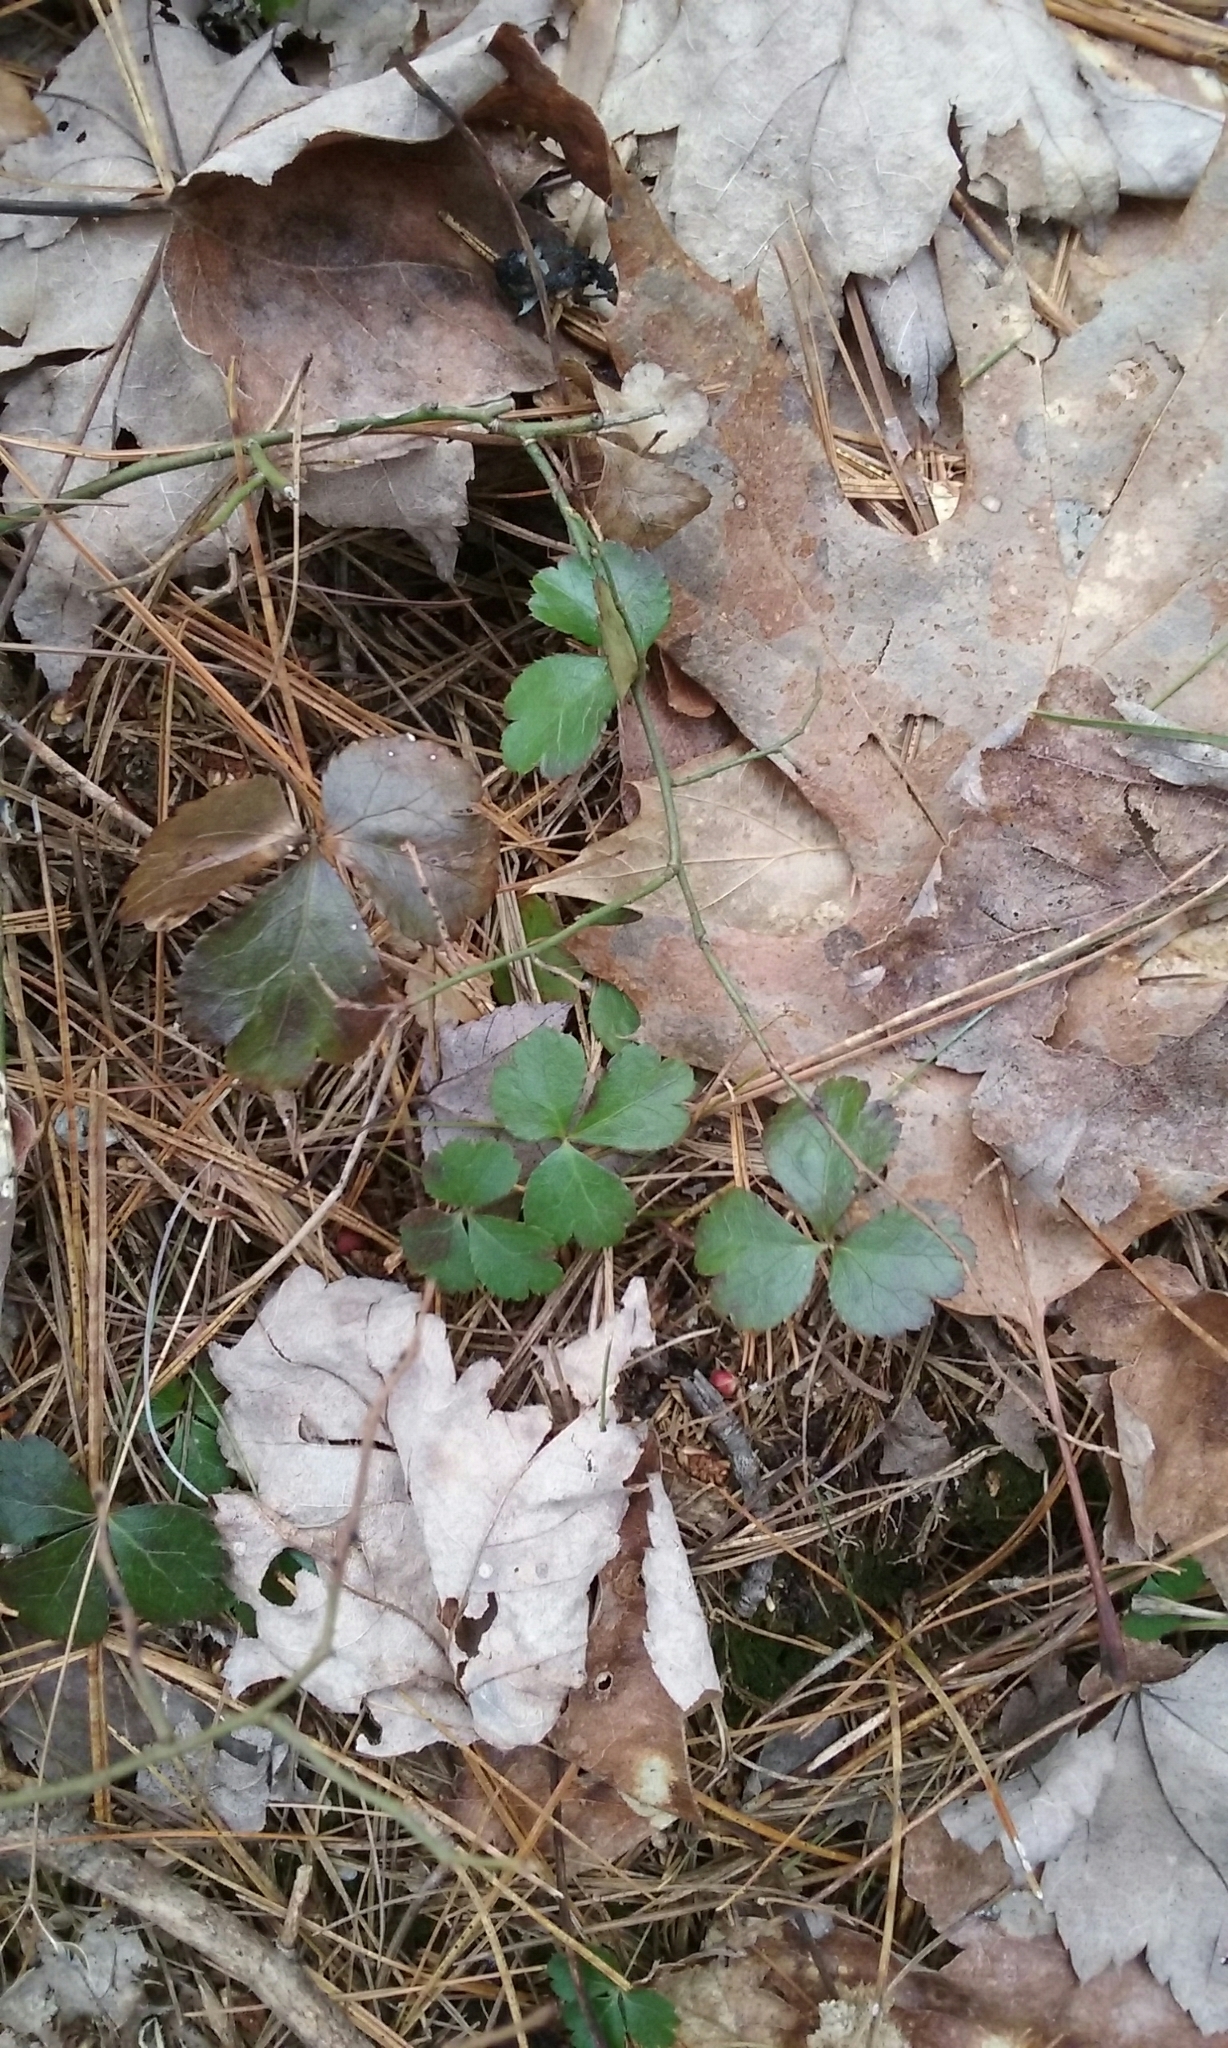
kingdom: Plantae
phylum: Tracheophyta
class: Magnoliopsida
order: Ranunculales
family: Ranunculaceae
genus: Coptis
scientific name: Coptis trifolia
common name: Canker-root
